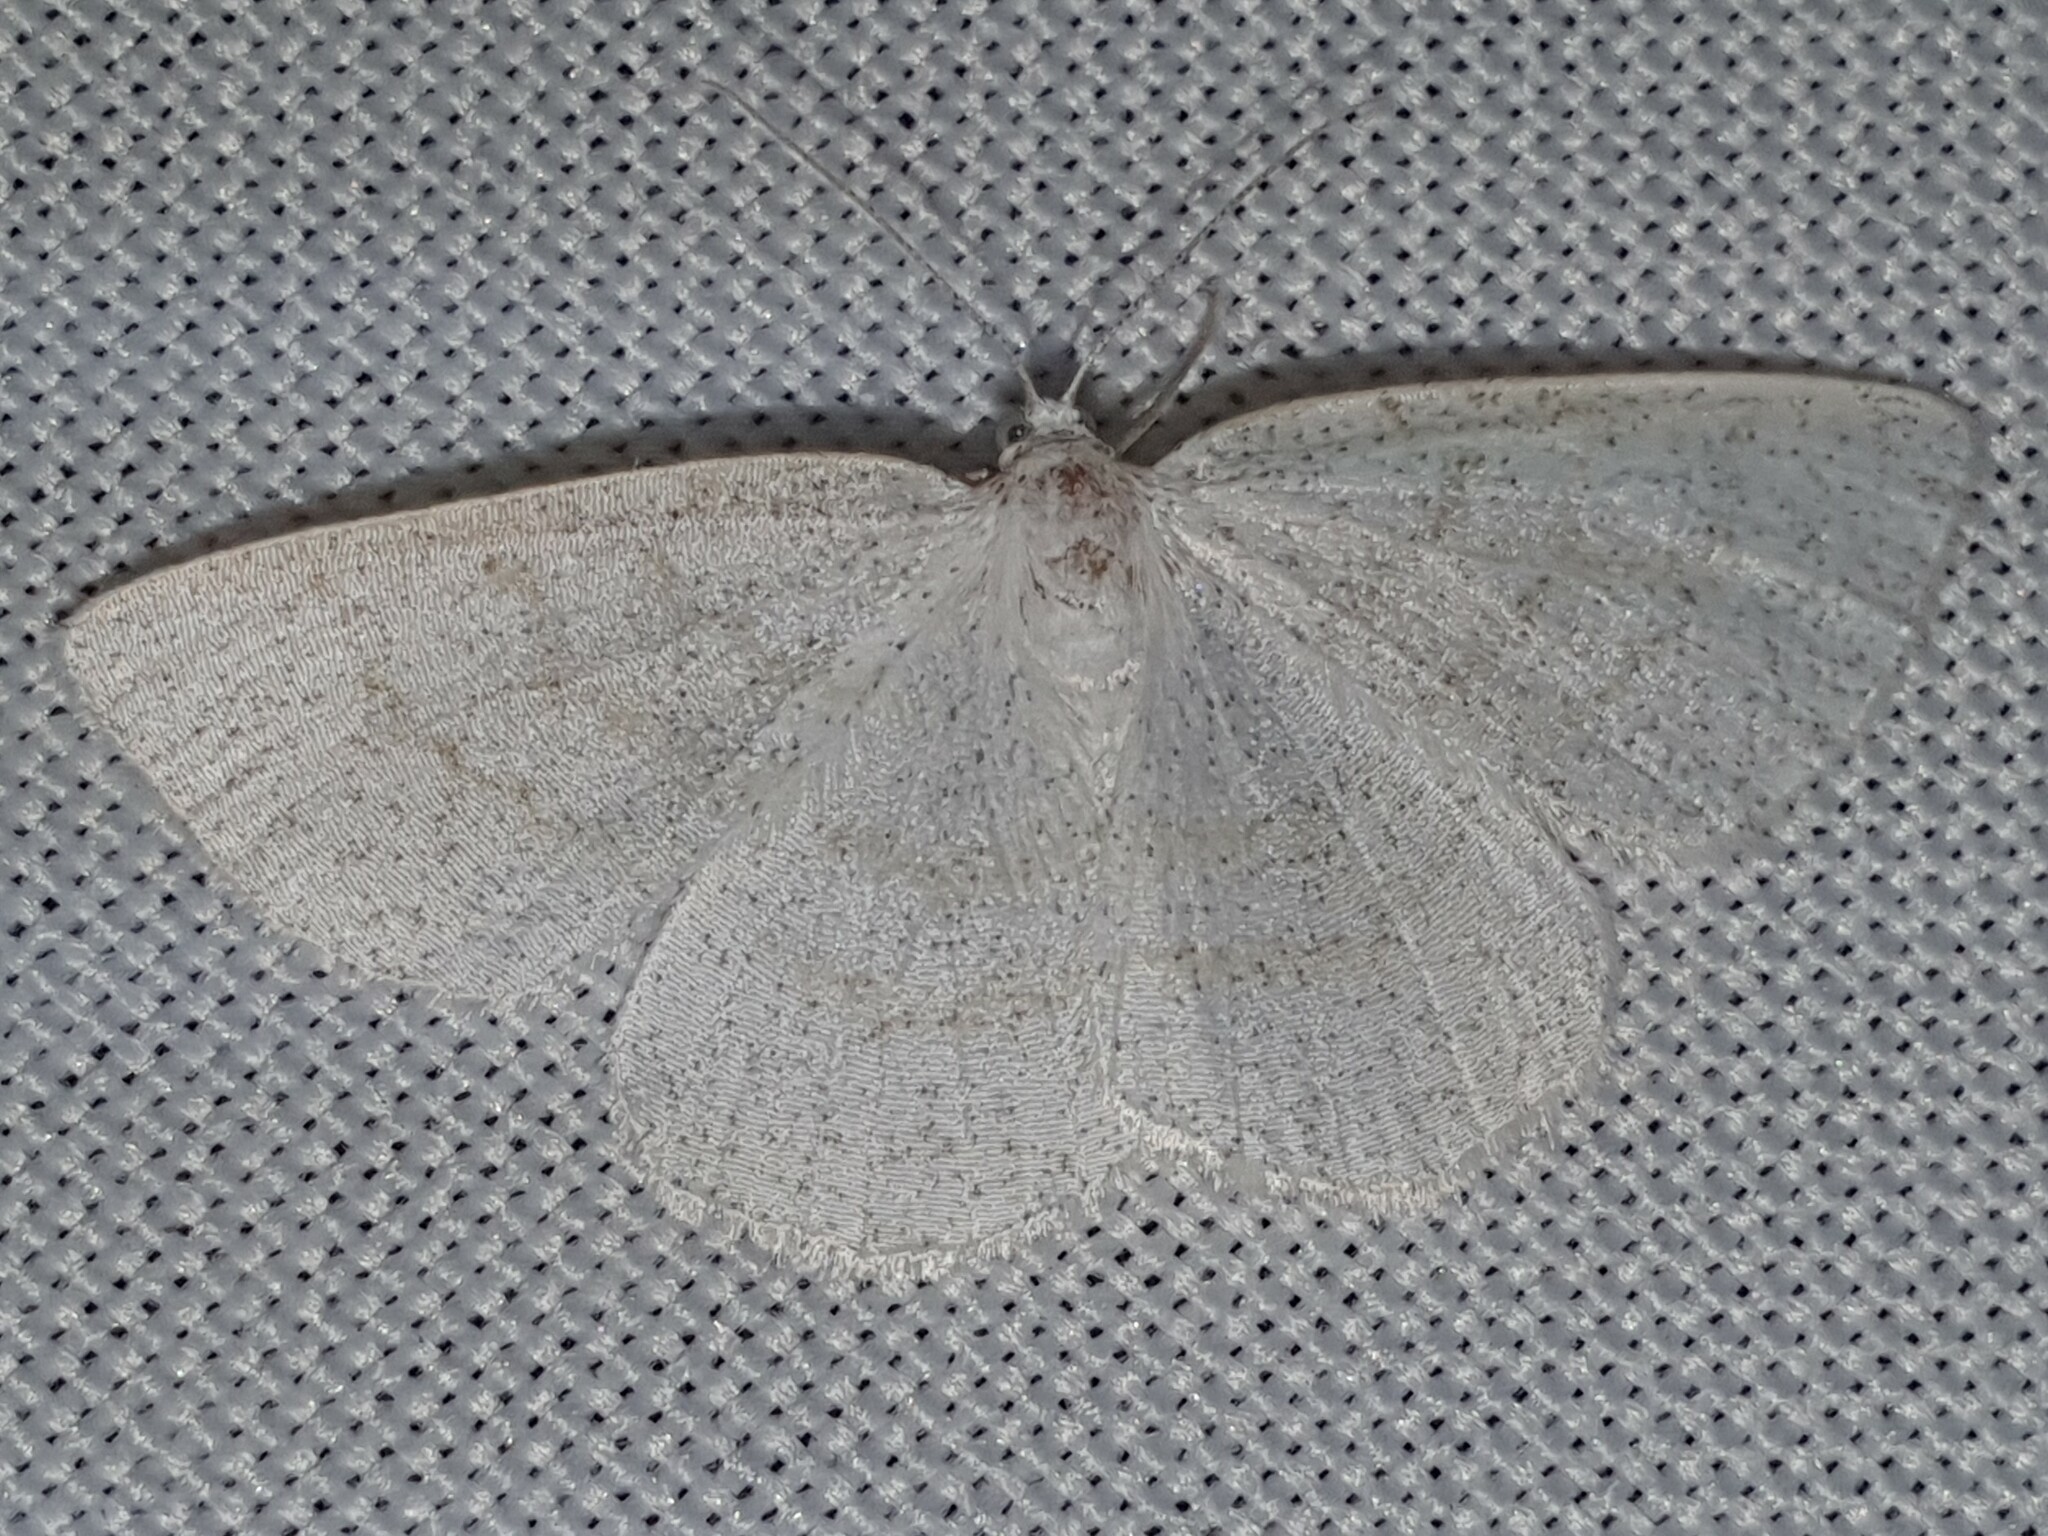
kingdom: Animalia
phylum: Arthropoda
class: Insecta
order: Lepidoptera
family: Geometridae
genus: Cabera
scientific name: Cabera exanthemata
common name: Common wave
